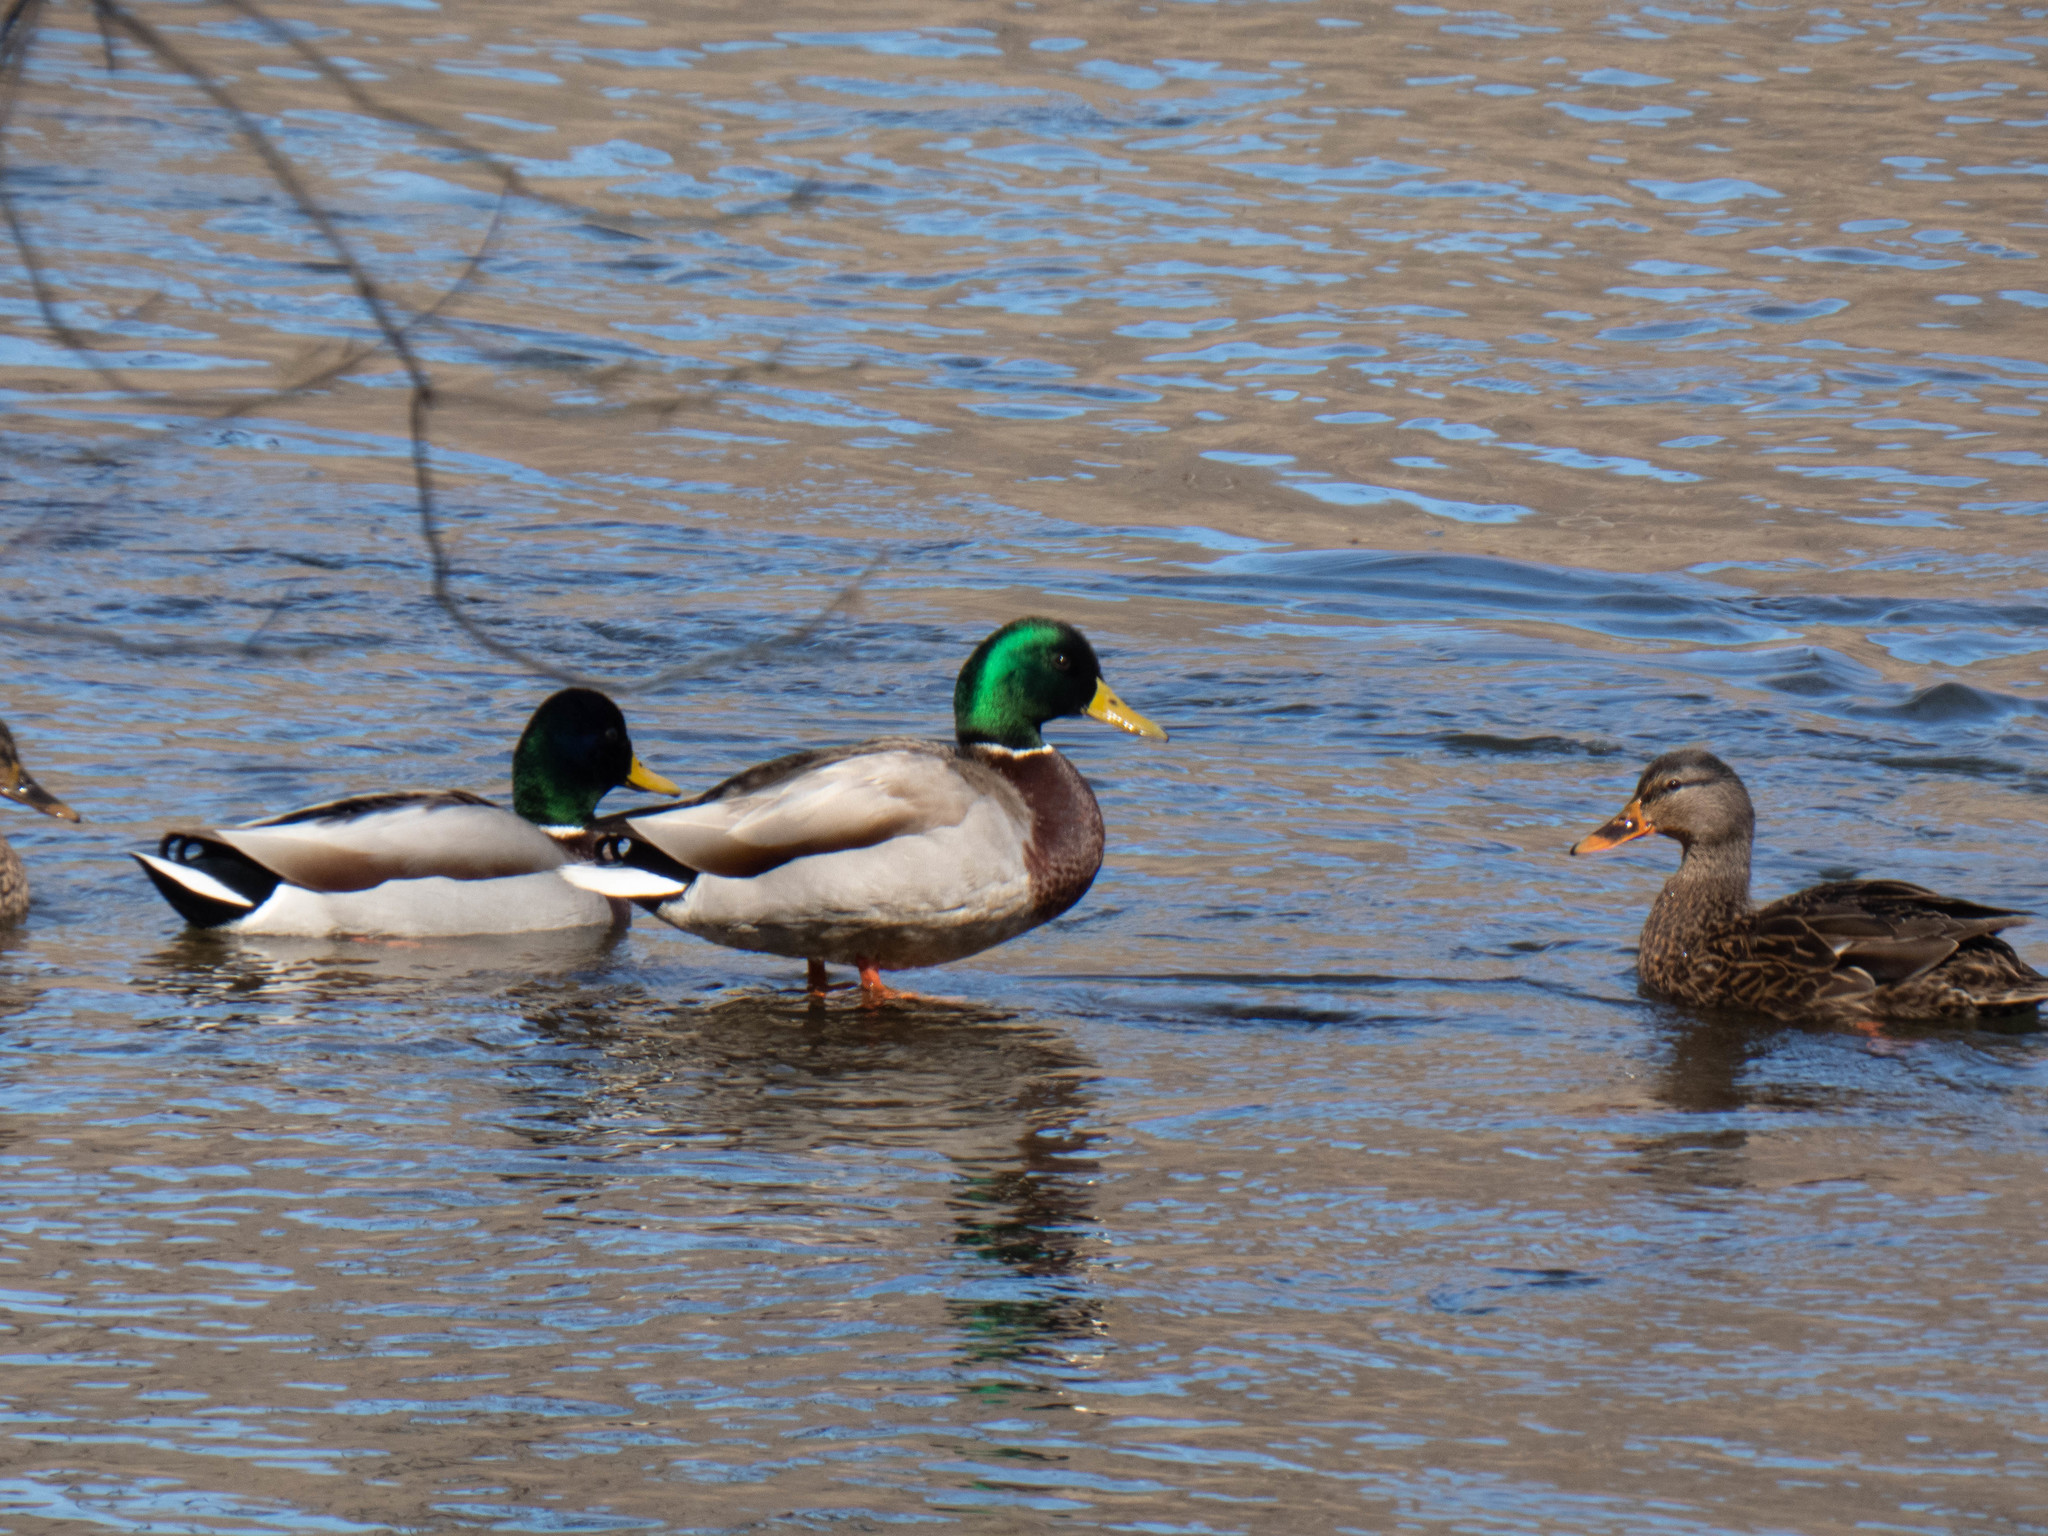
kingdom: Animalia
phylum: Chordata
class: Aves
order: Anseriformes
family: Anatidae
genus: Anas
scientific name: Anas platyrhynchos
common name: Mallard
